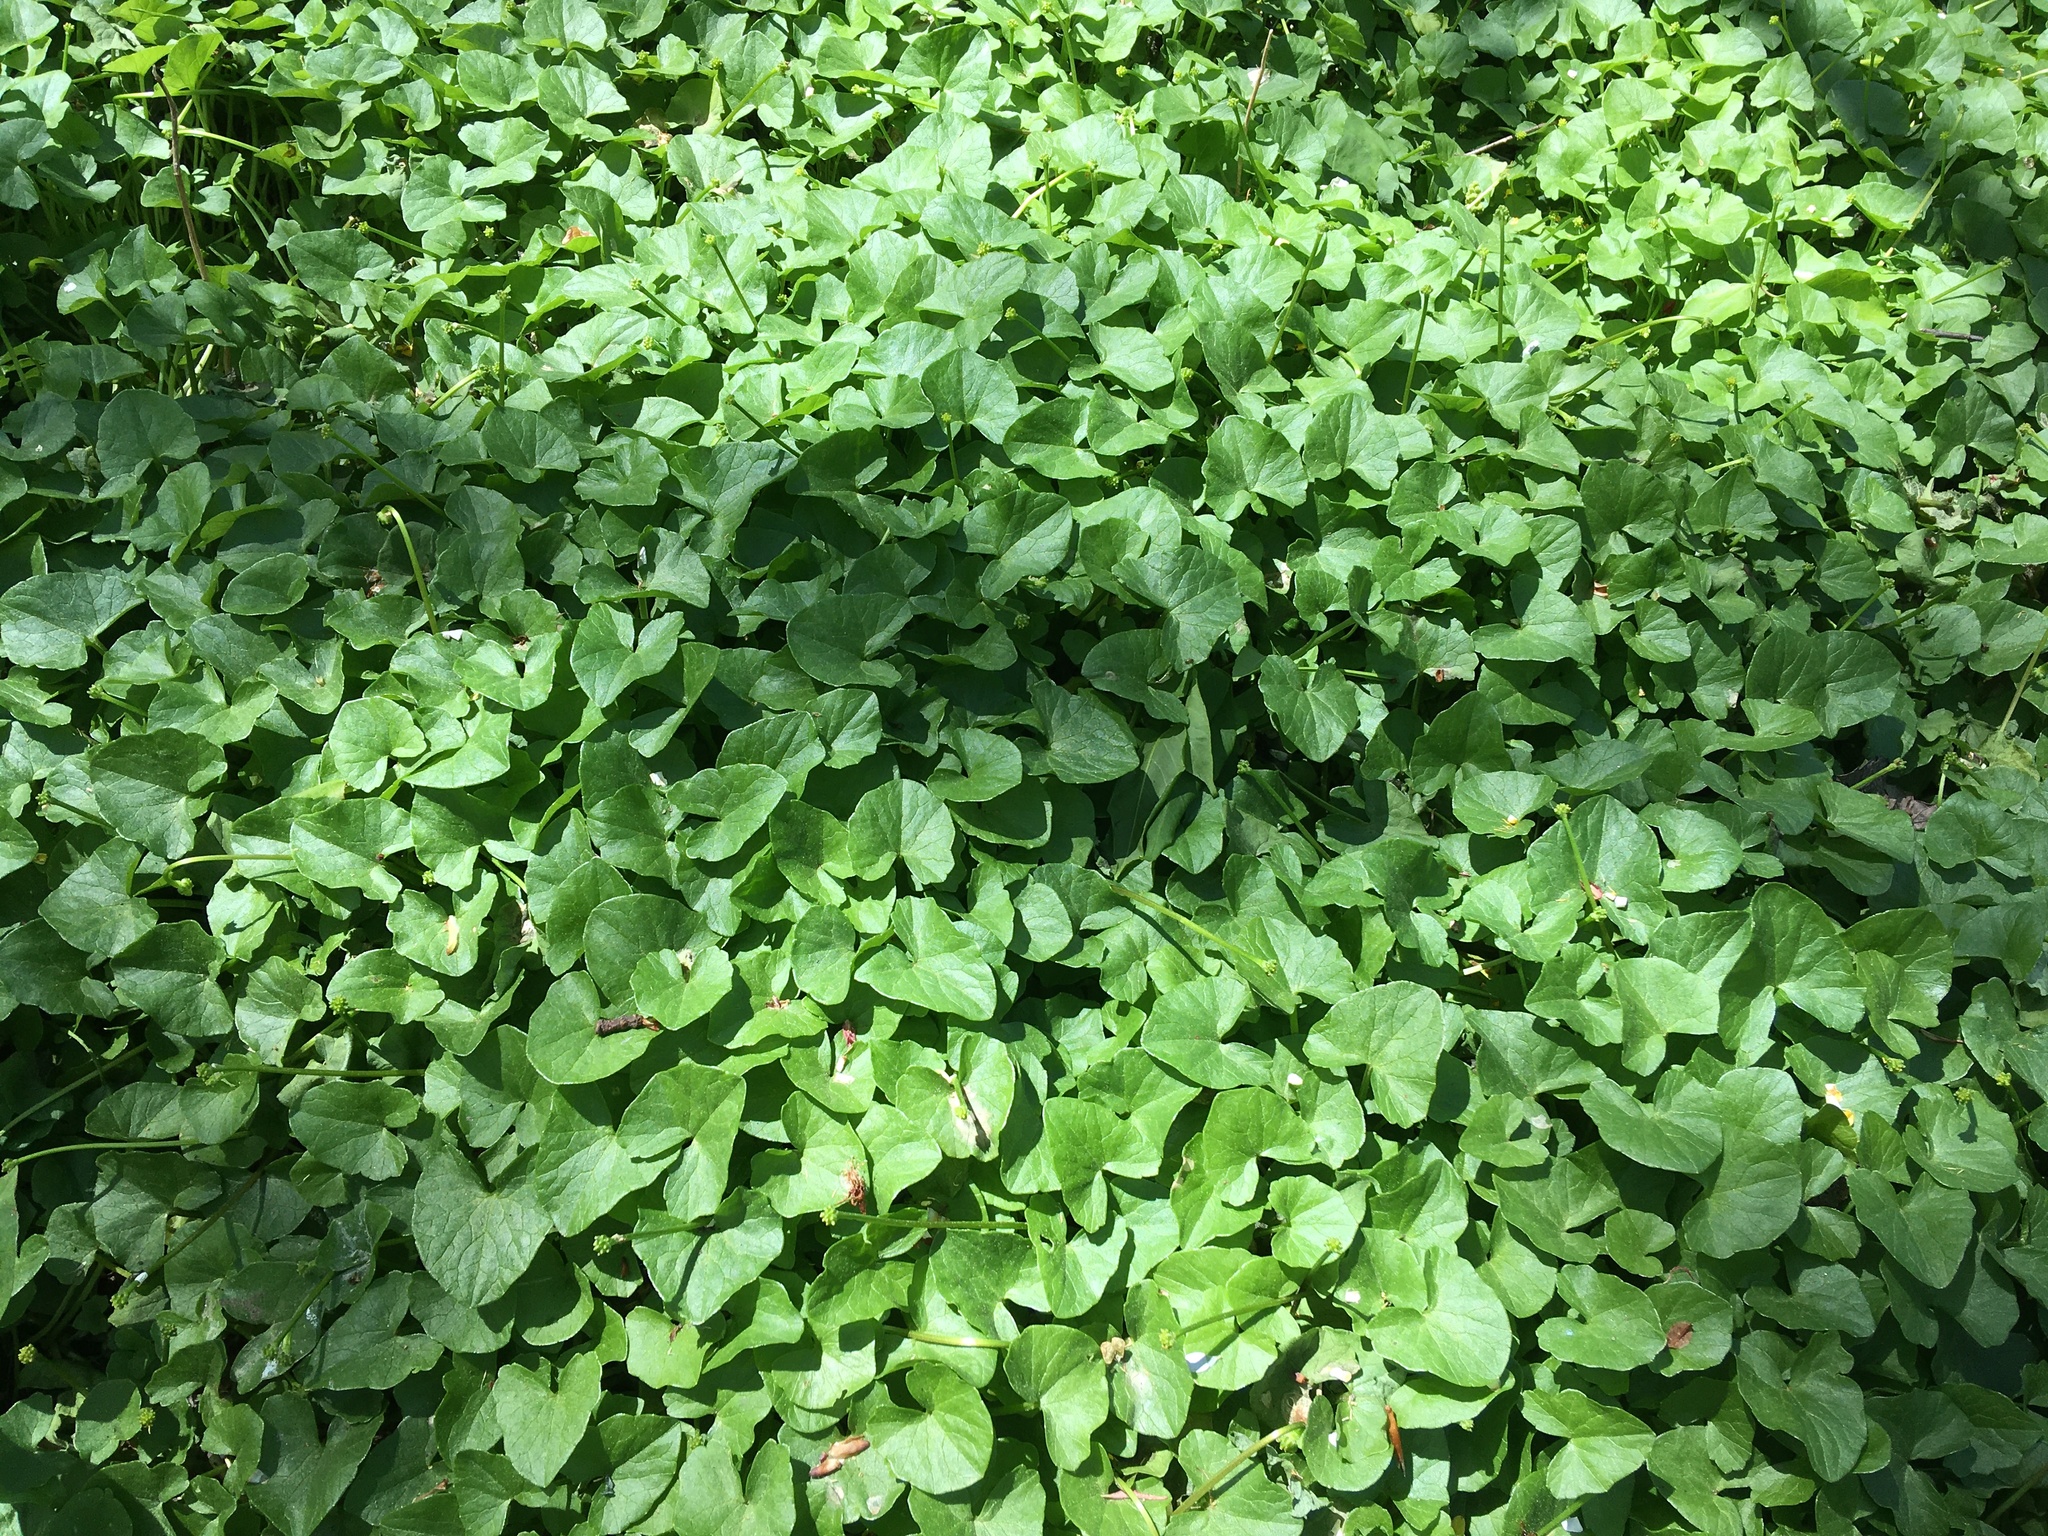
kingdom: Plantae
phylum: Tracheophyta
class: Magnoliopsida
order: Ranunculales
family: Ranunculaceae
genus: Ficaria
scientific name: Ficaria verna
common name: Lesser celandine
